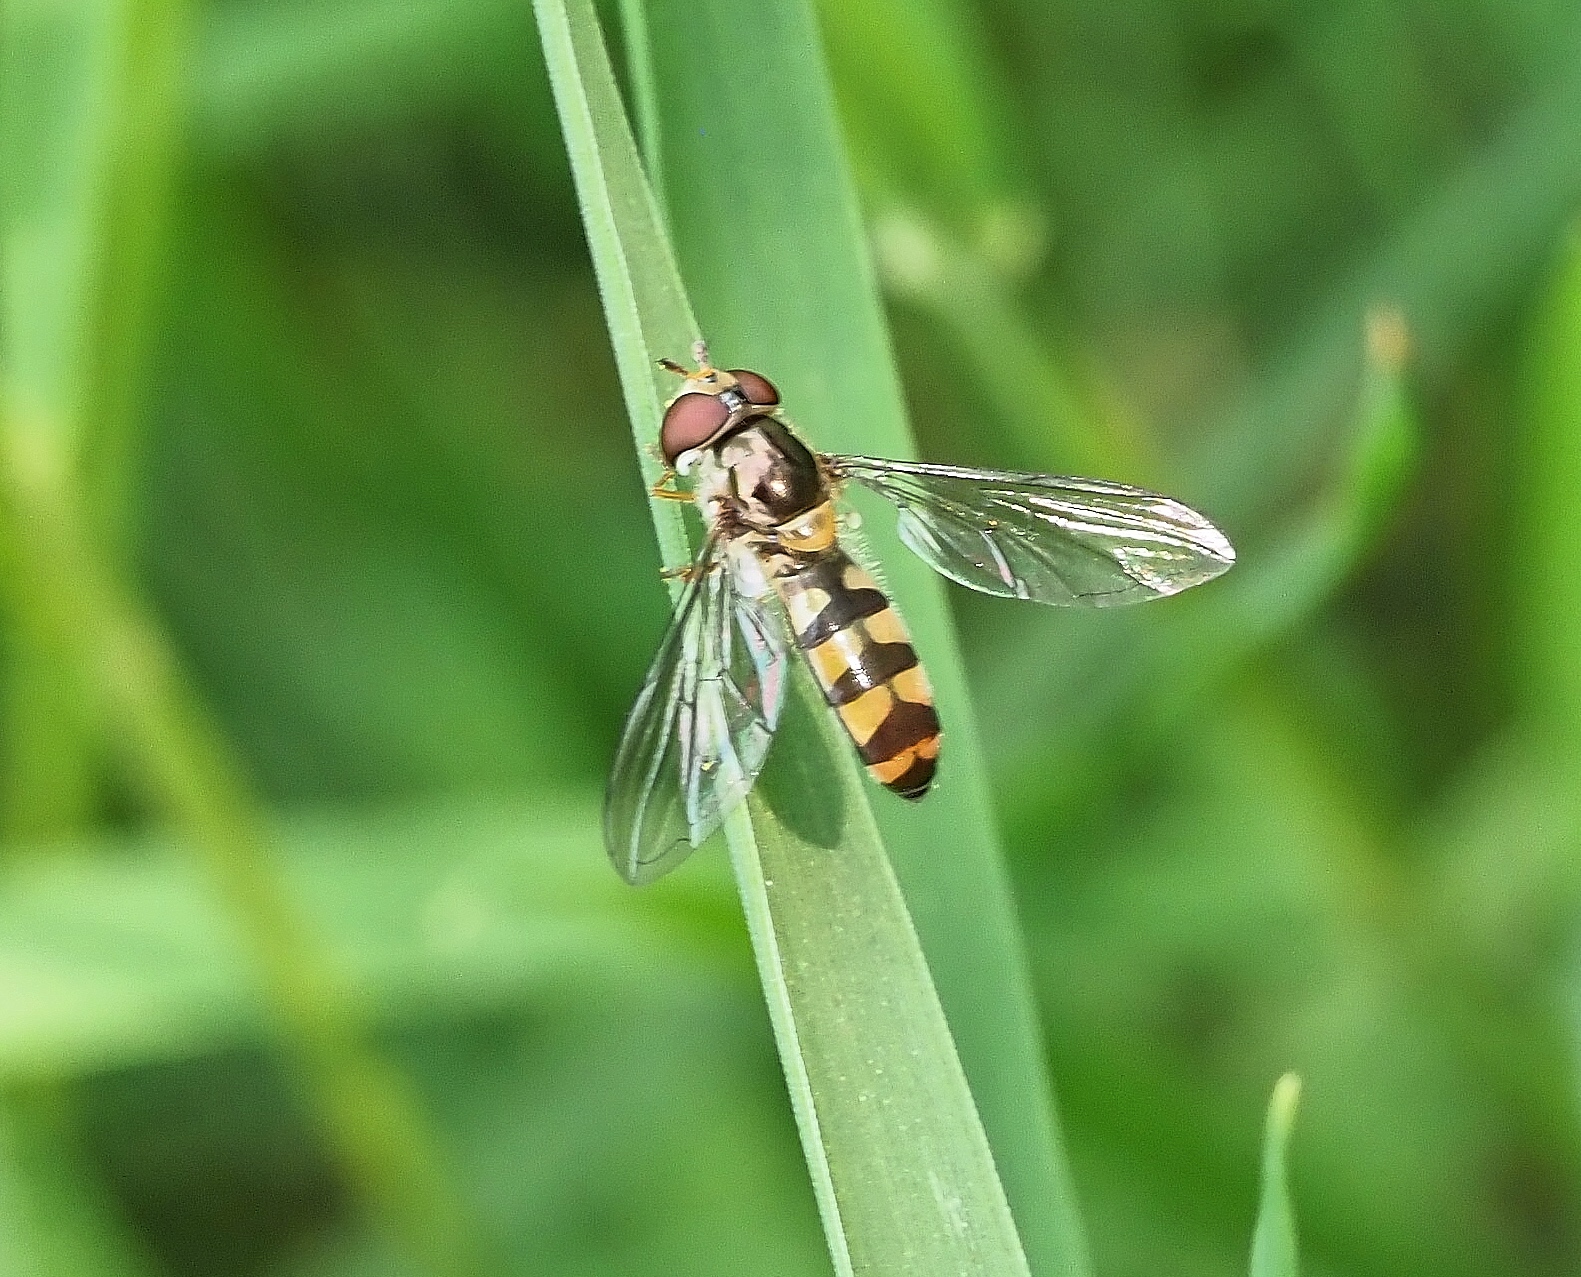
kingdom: Animalia
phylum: Arthropoda
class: Insecta
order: Diptera
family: Syrphidae
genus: Meliscaeva
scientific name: Meliscaeva auricollis
